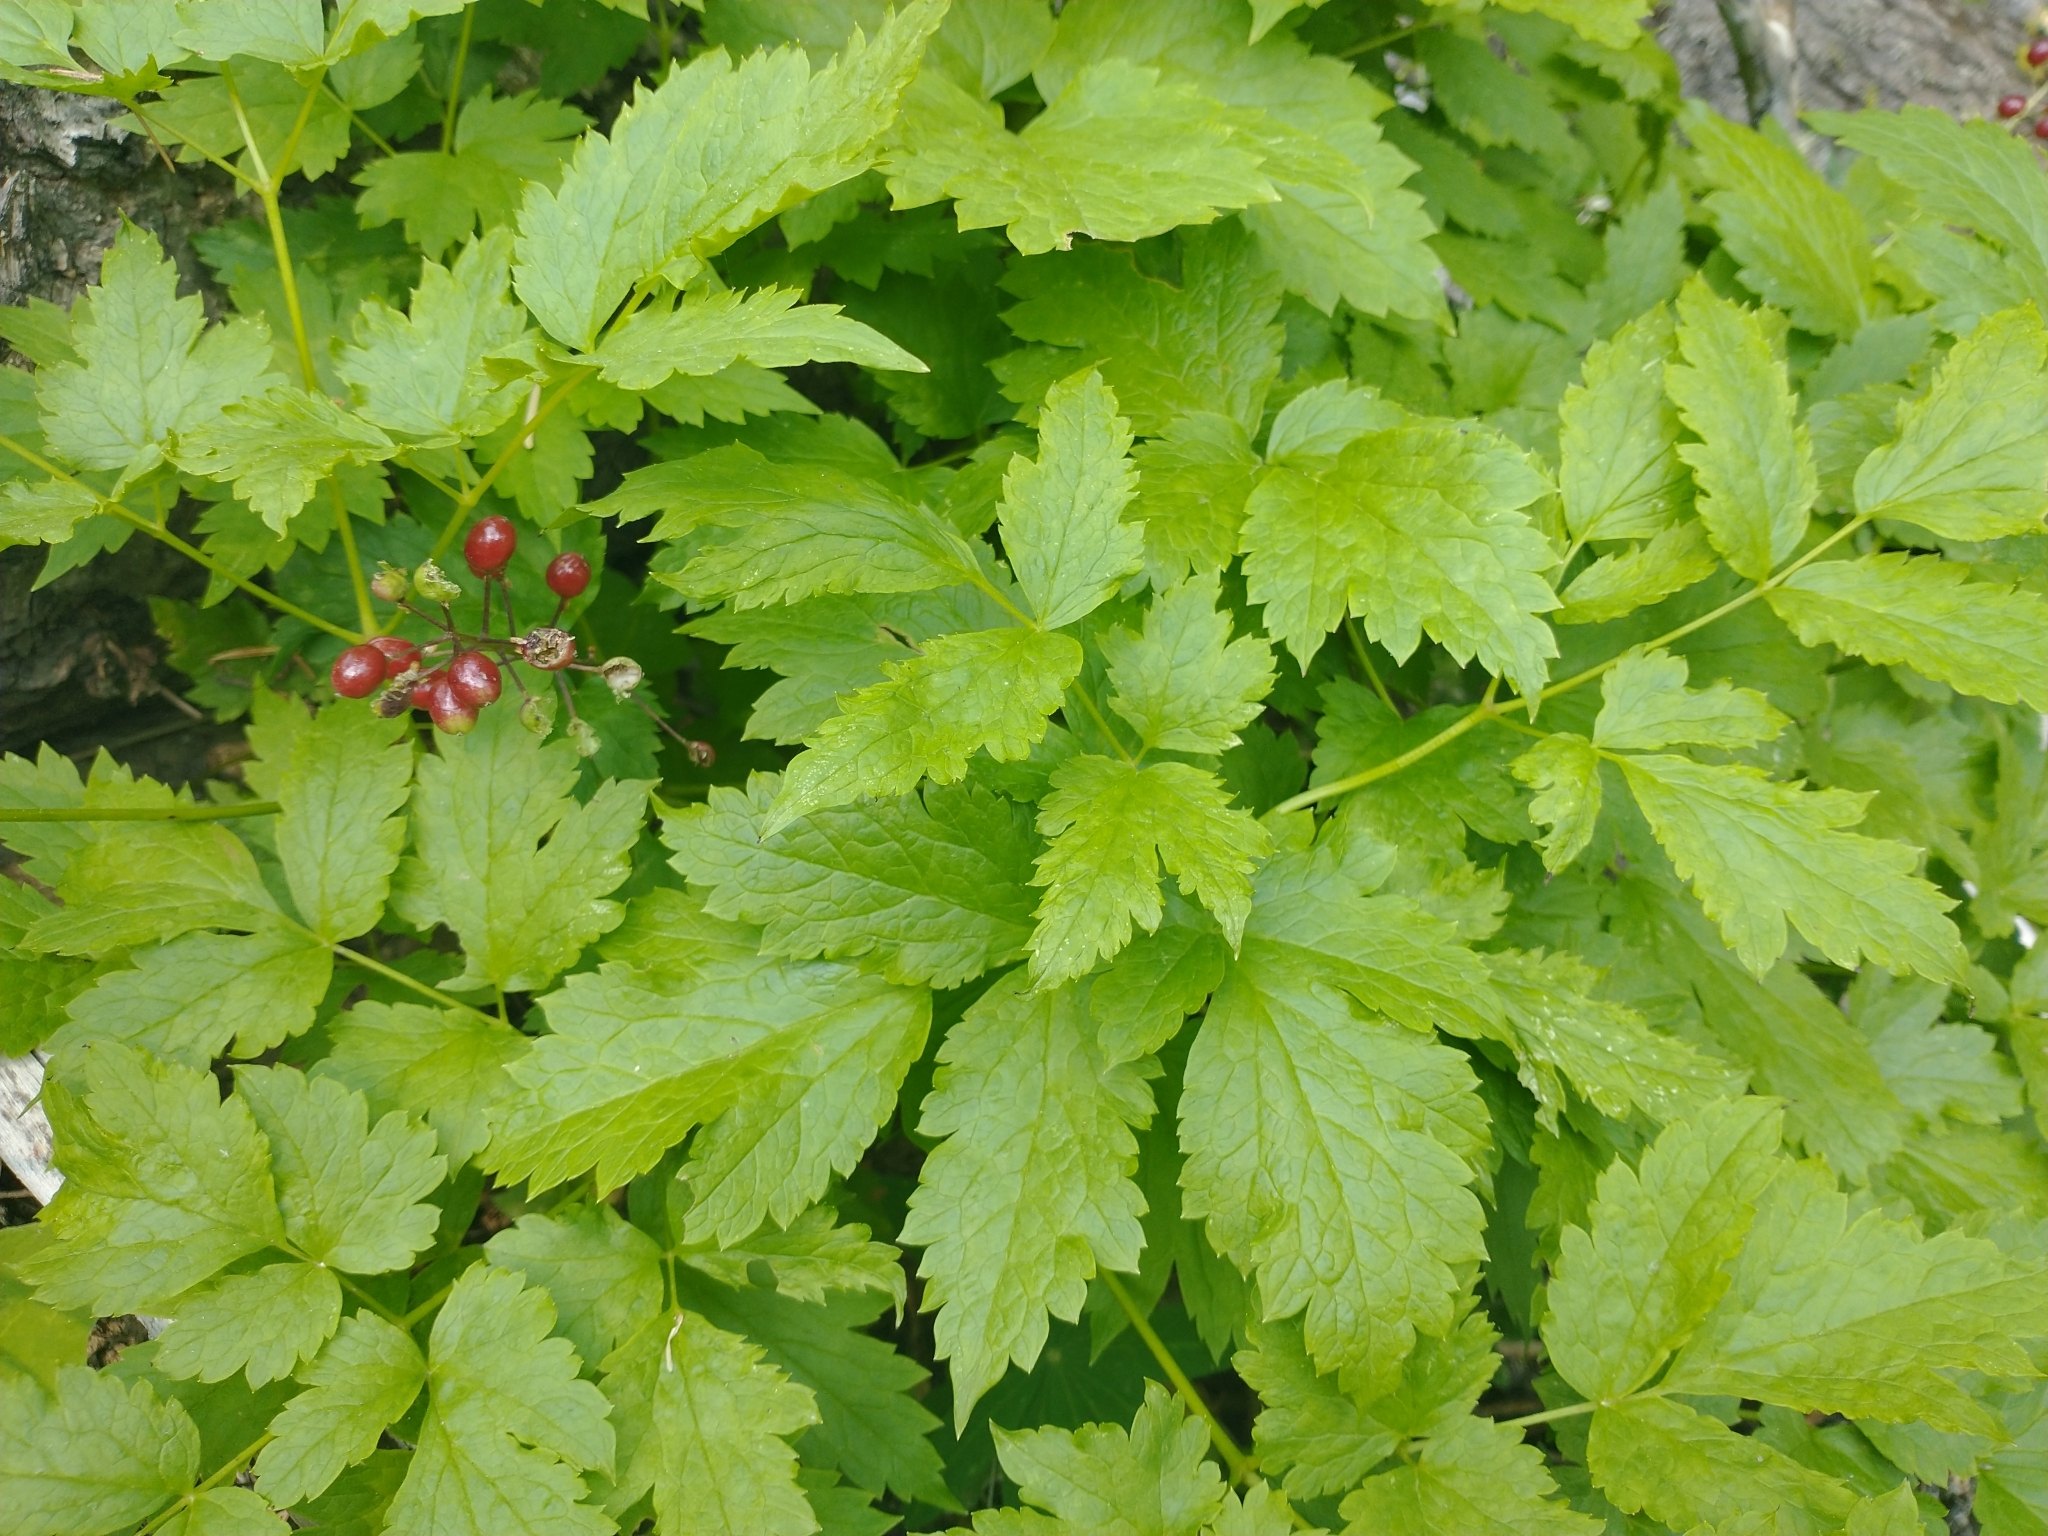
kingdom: Plantae
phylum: Tracheophyta
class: Magnoliopsida
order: Ranunculales
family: Ranunculaceae
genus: Actaea
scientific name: Actaea rubra
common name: Red baneberry
